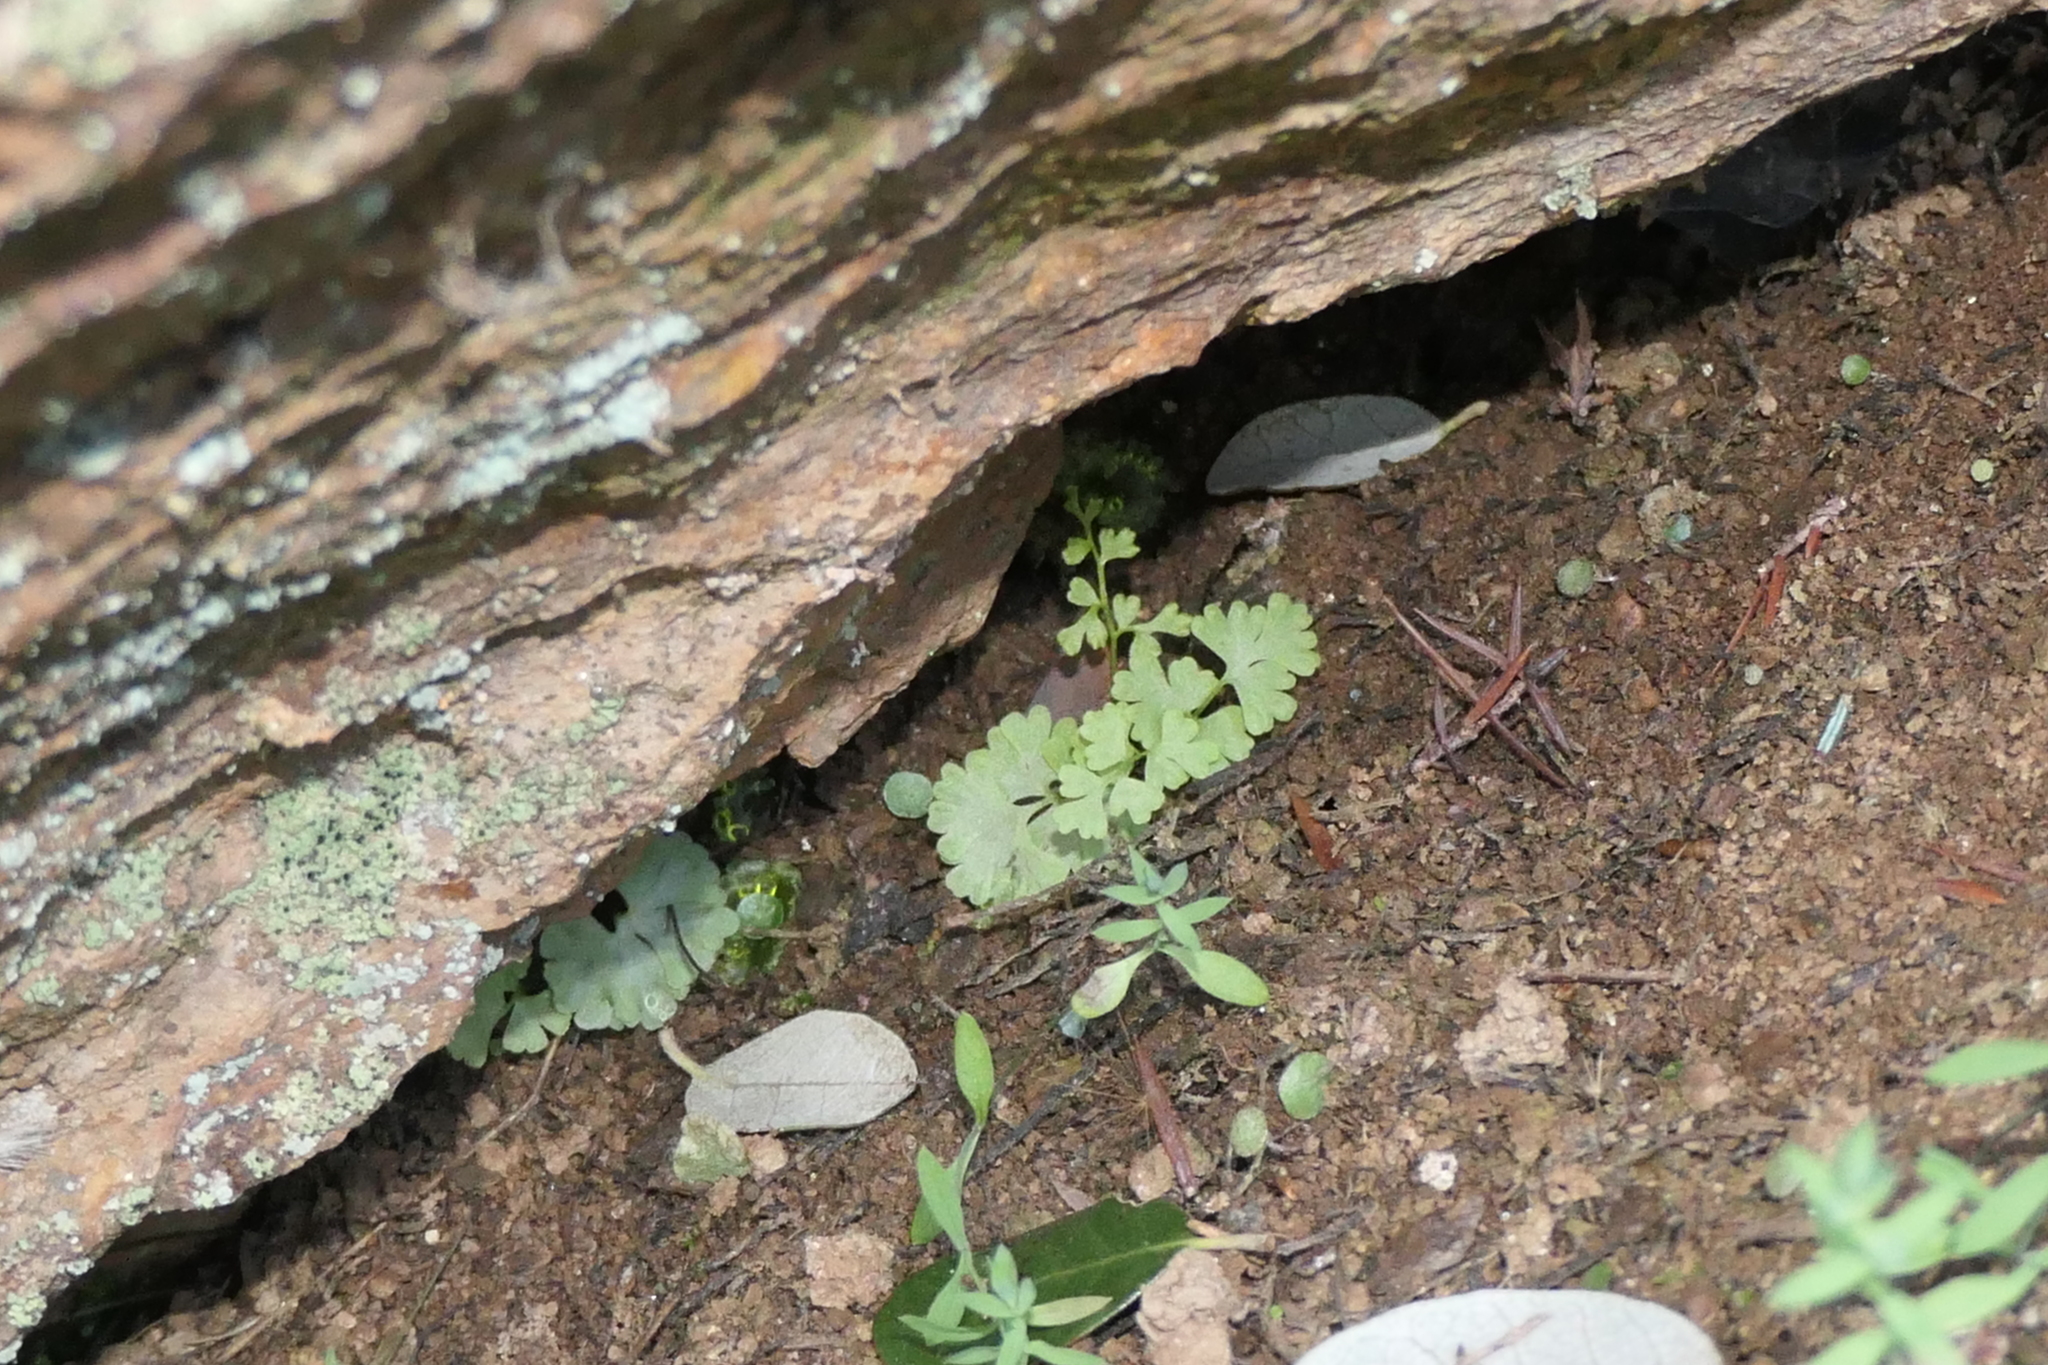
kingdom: Plantae
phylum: Tracheophyta
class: Polypodiopsida
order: Polypodiales
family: Pteridaceae
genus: Anogramma
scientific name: Anogramma leptophylla
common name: Jersey fern
